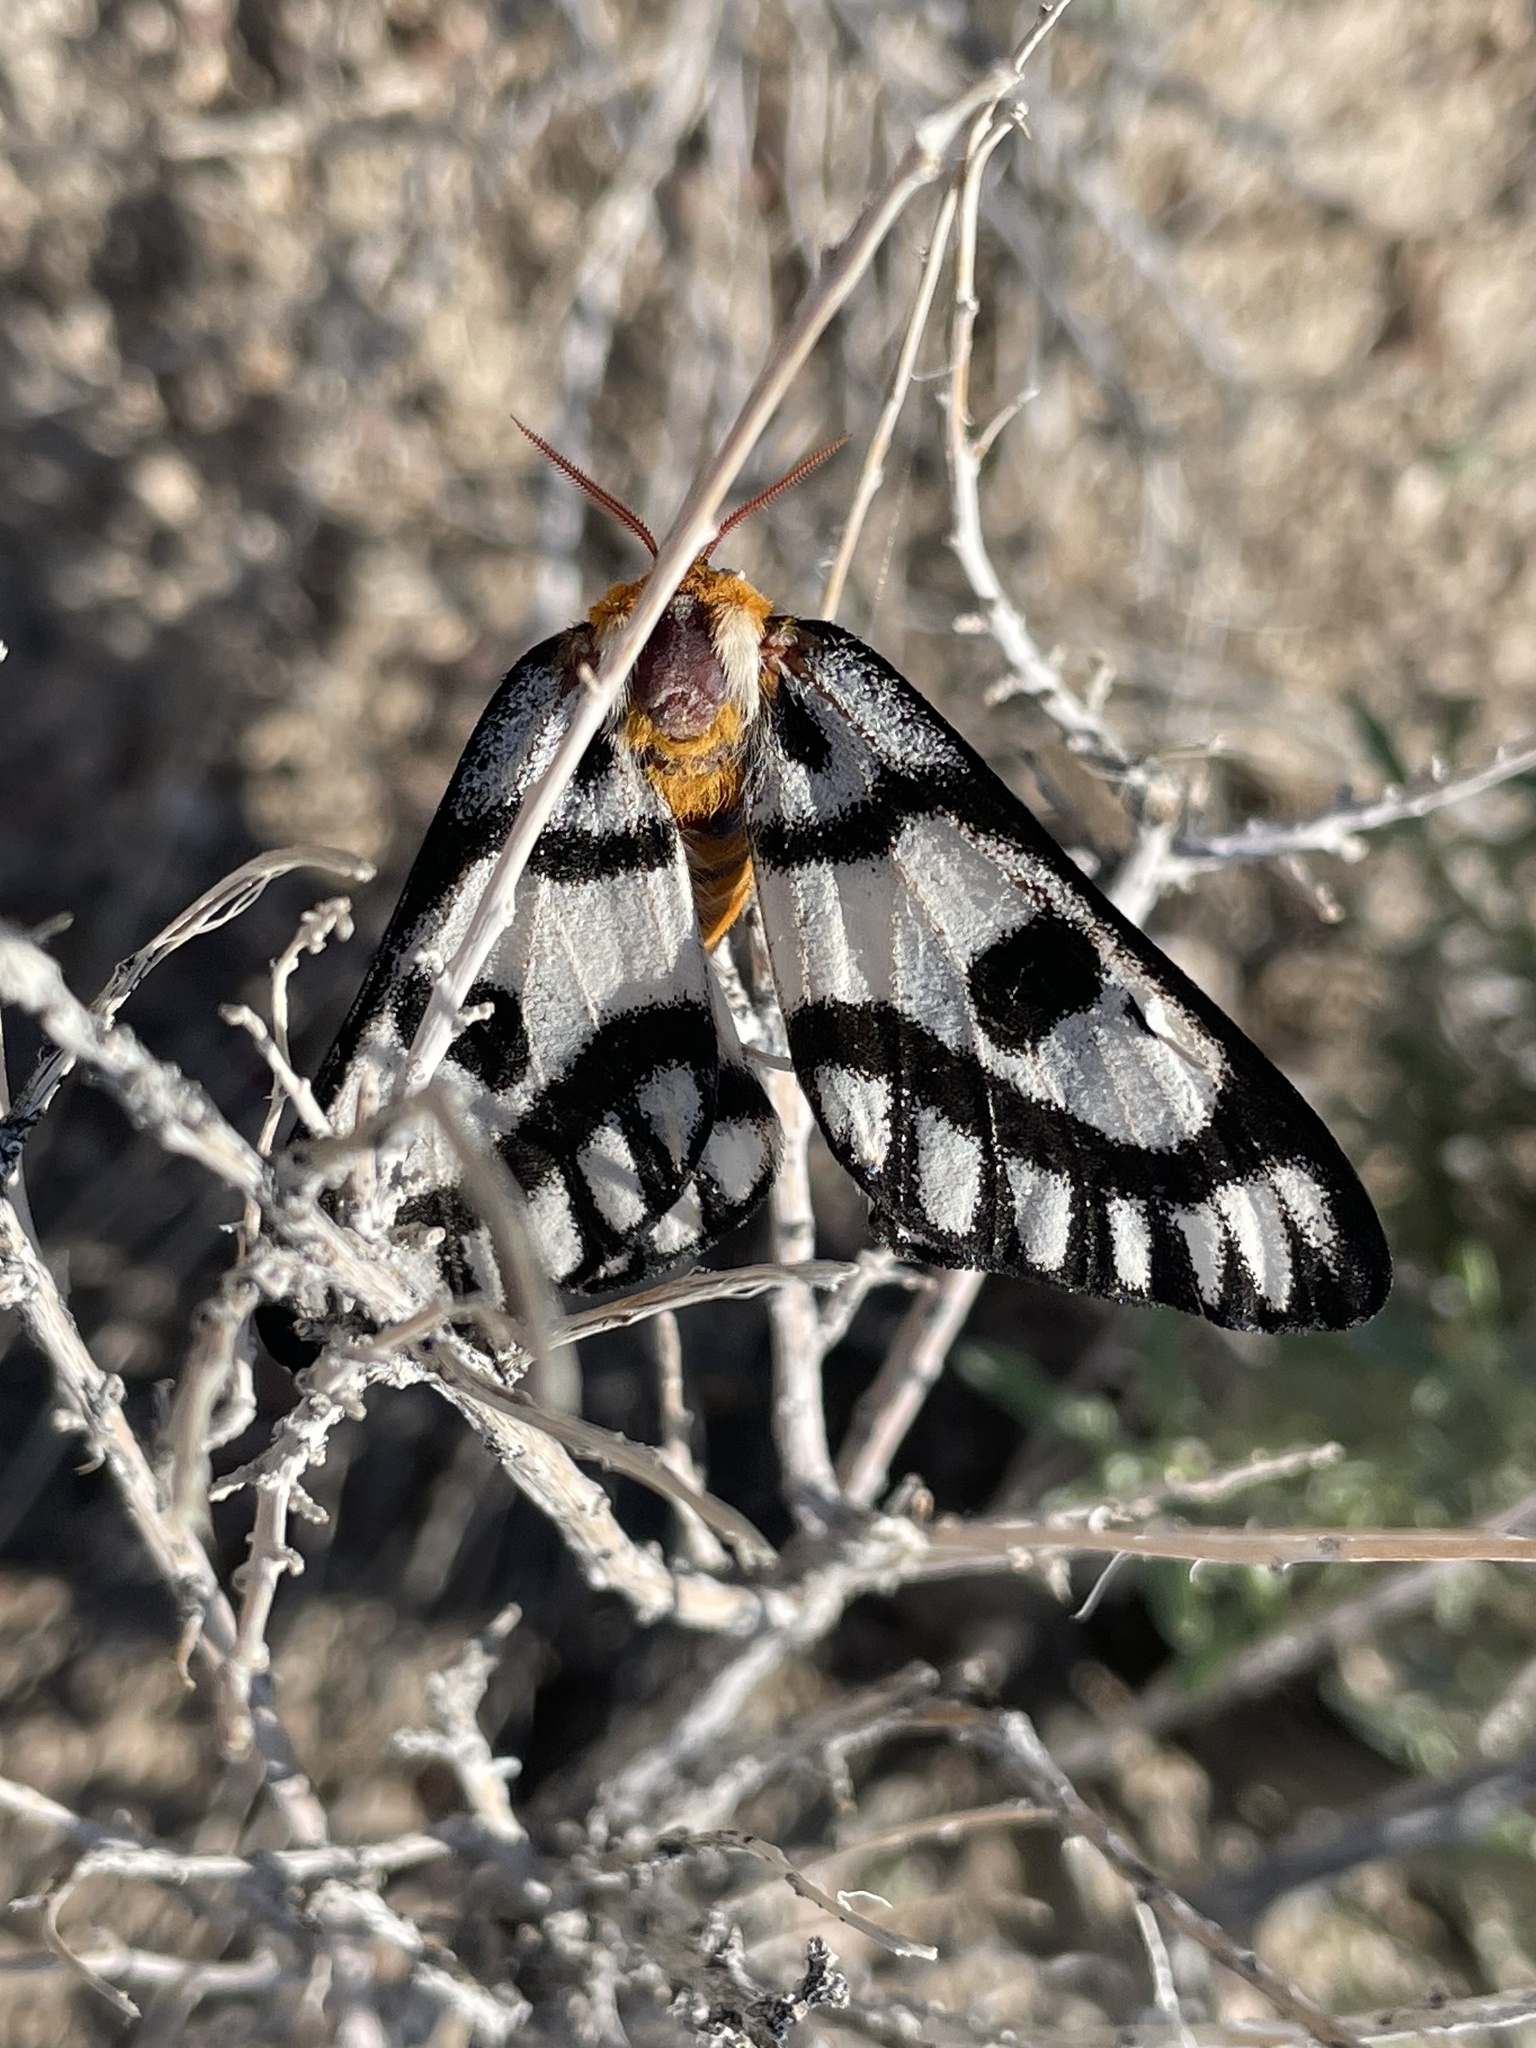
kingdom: Animalia
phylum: Arthropoda
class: Insecta
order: Lepidoptera
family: Saturniidae
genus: Hemileuca
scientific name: Hemileuca hera
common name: Hera sheepmoth
